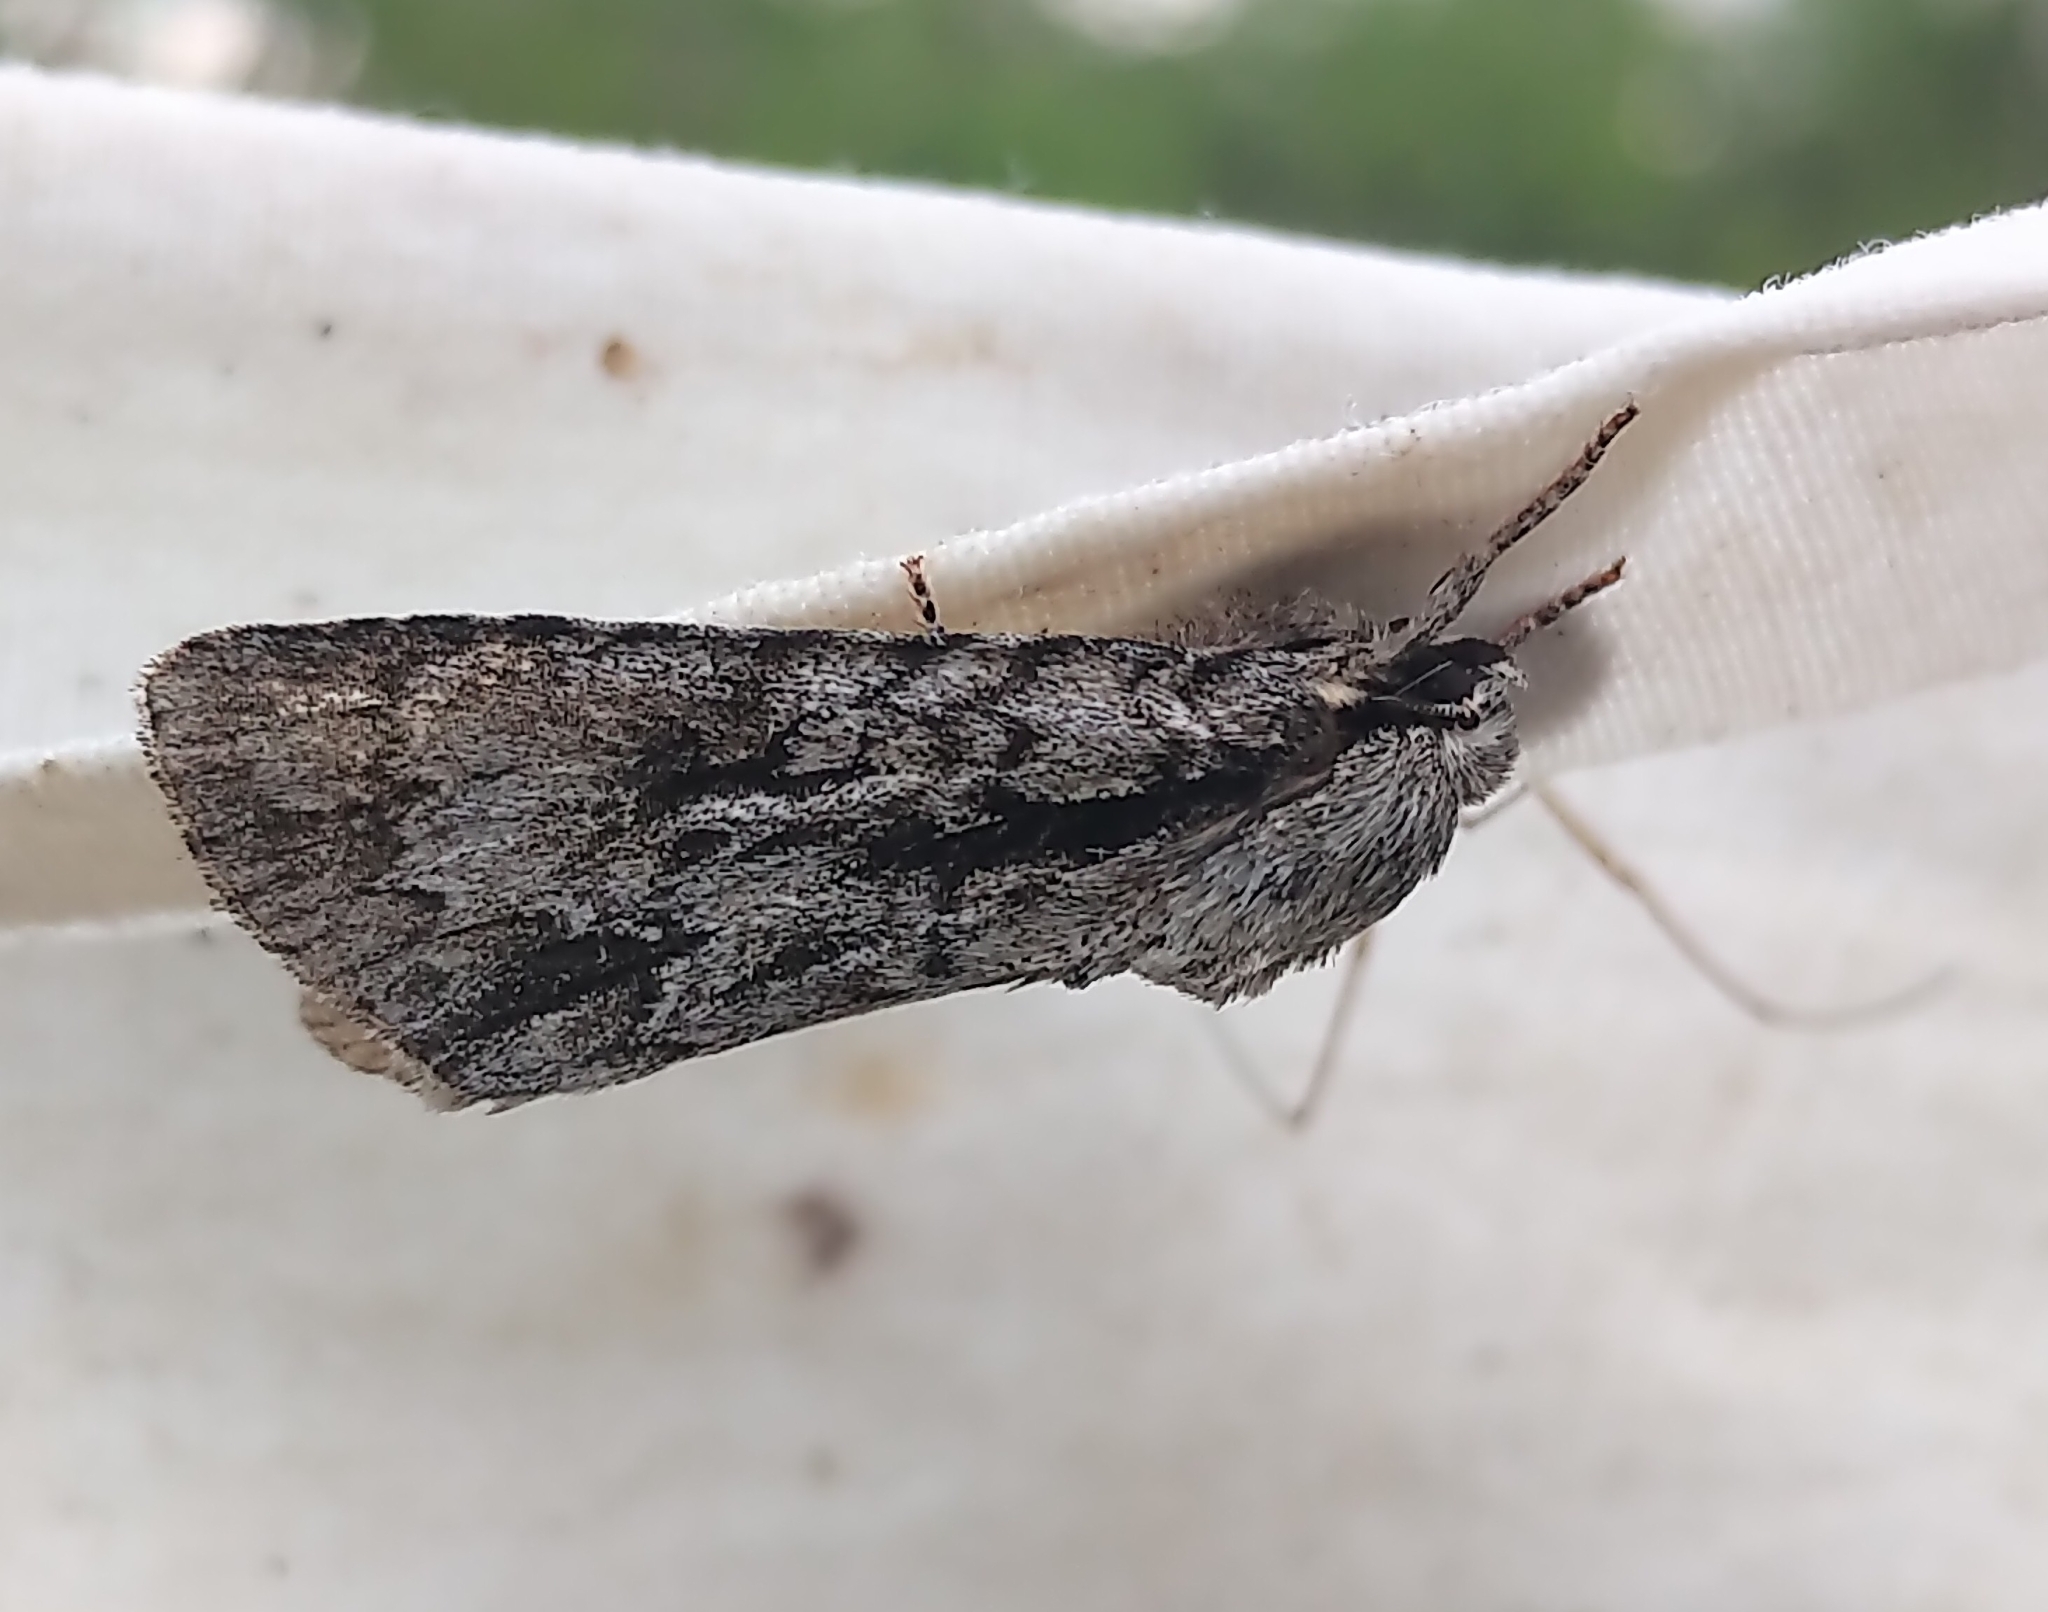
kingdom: Animalia
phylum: Arthropoda
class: Insecta
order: Lepidoptera
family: Noctuidae
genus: Acronicta
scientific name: Acronicta hasta
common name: Cherry dagger
